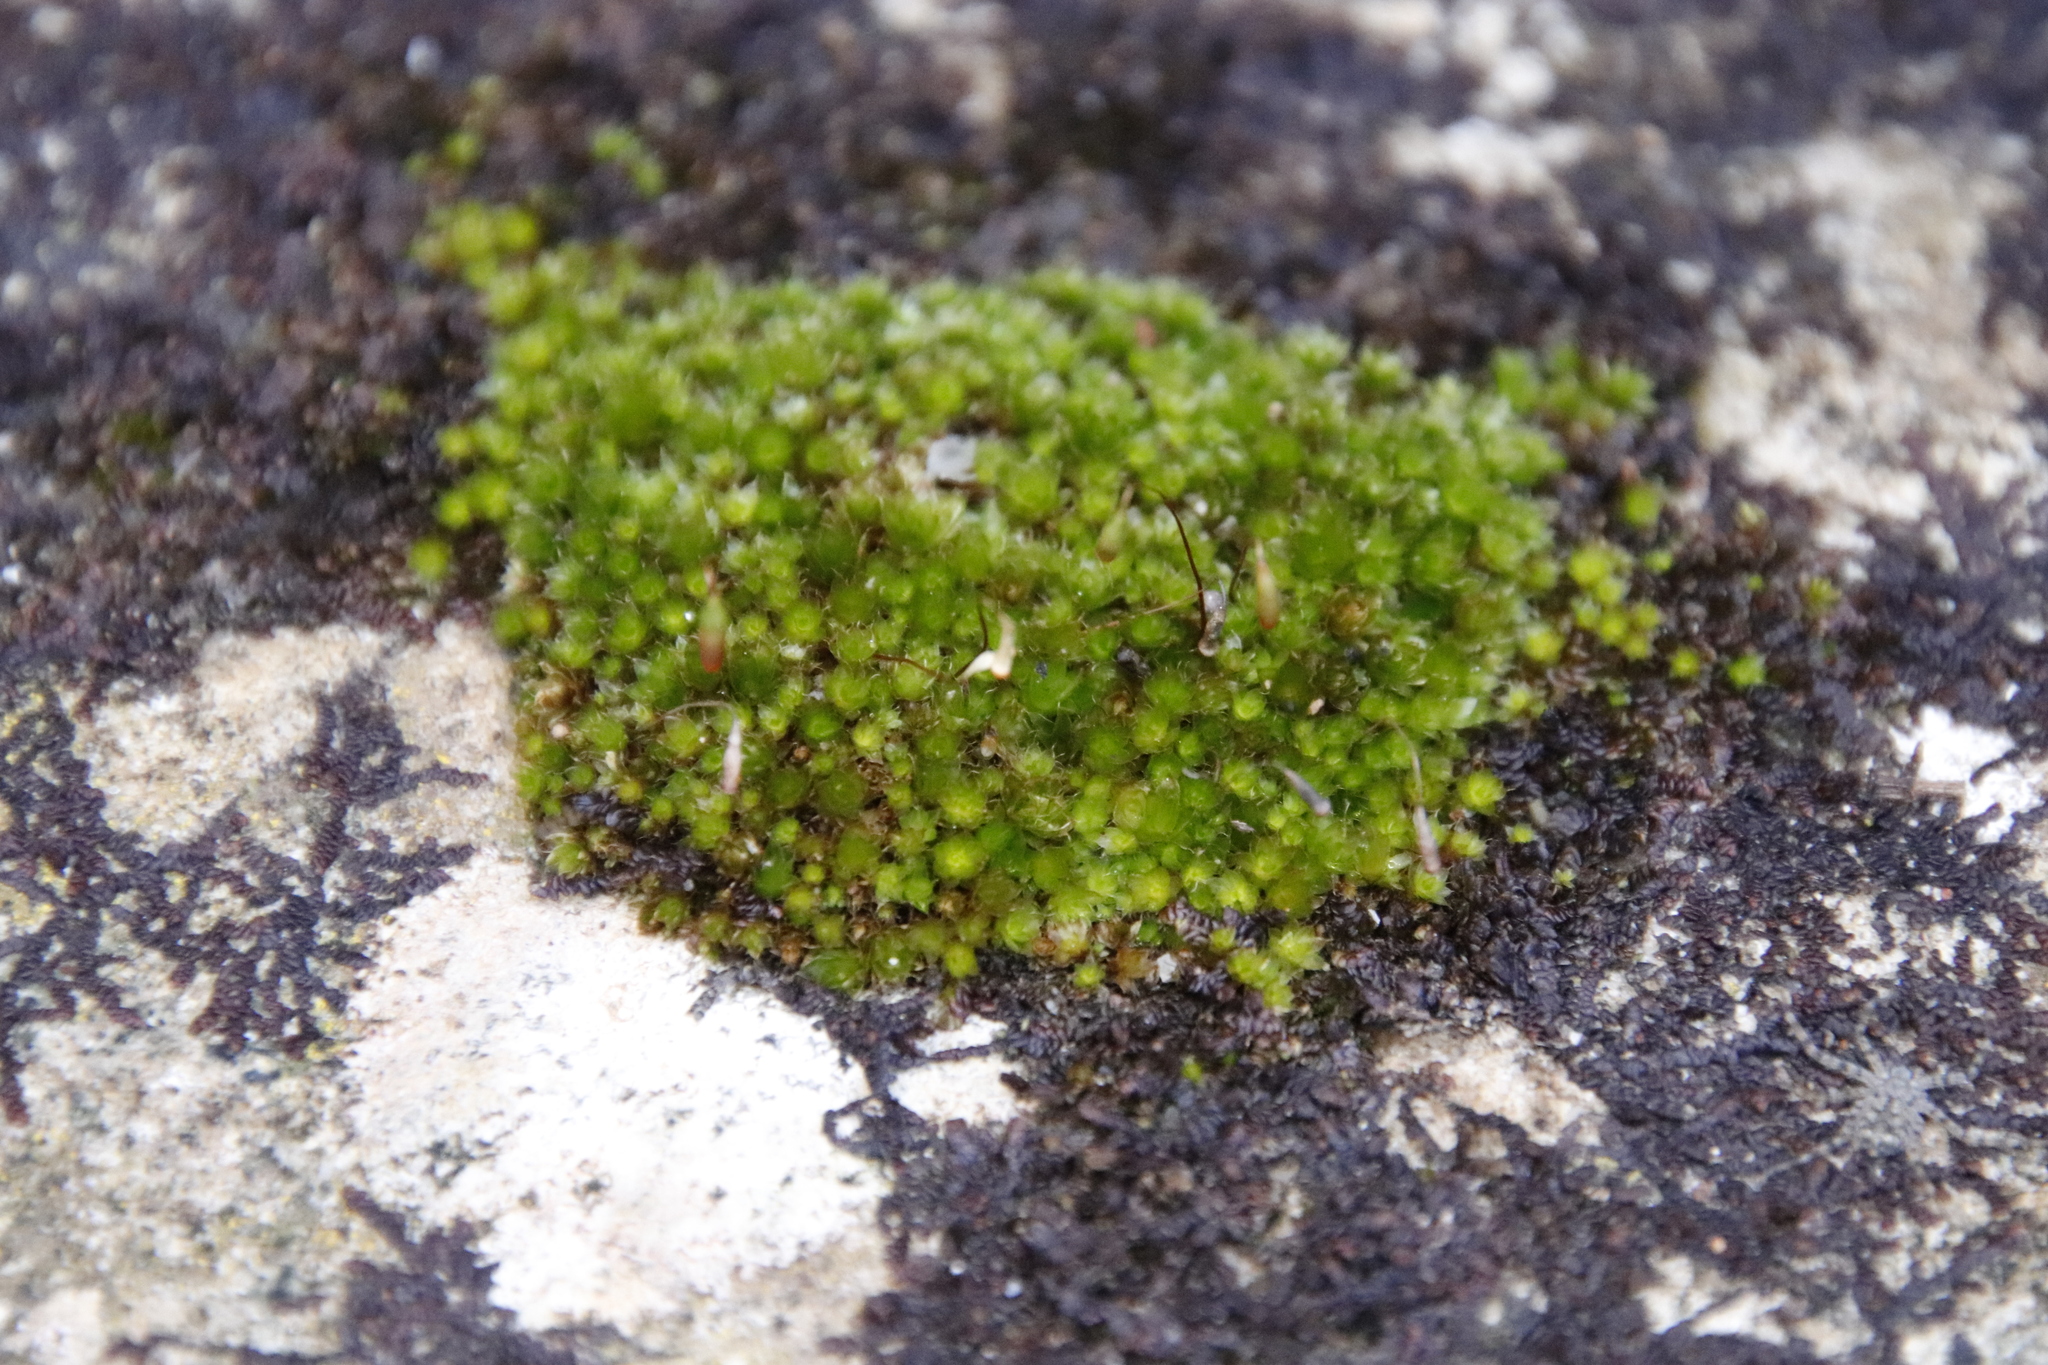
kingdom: Plantae
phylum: Bryophyta
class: Bryopsida
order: Bryales
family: Bryaceae
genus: Rosulabryum
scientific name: Rosulabryum torquescens
